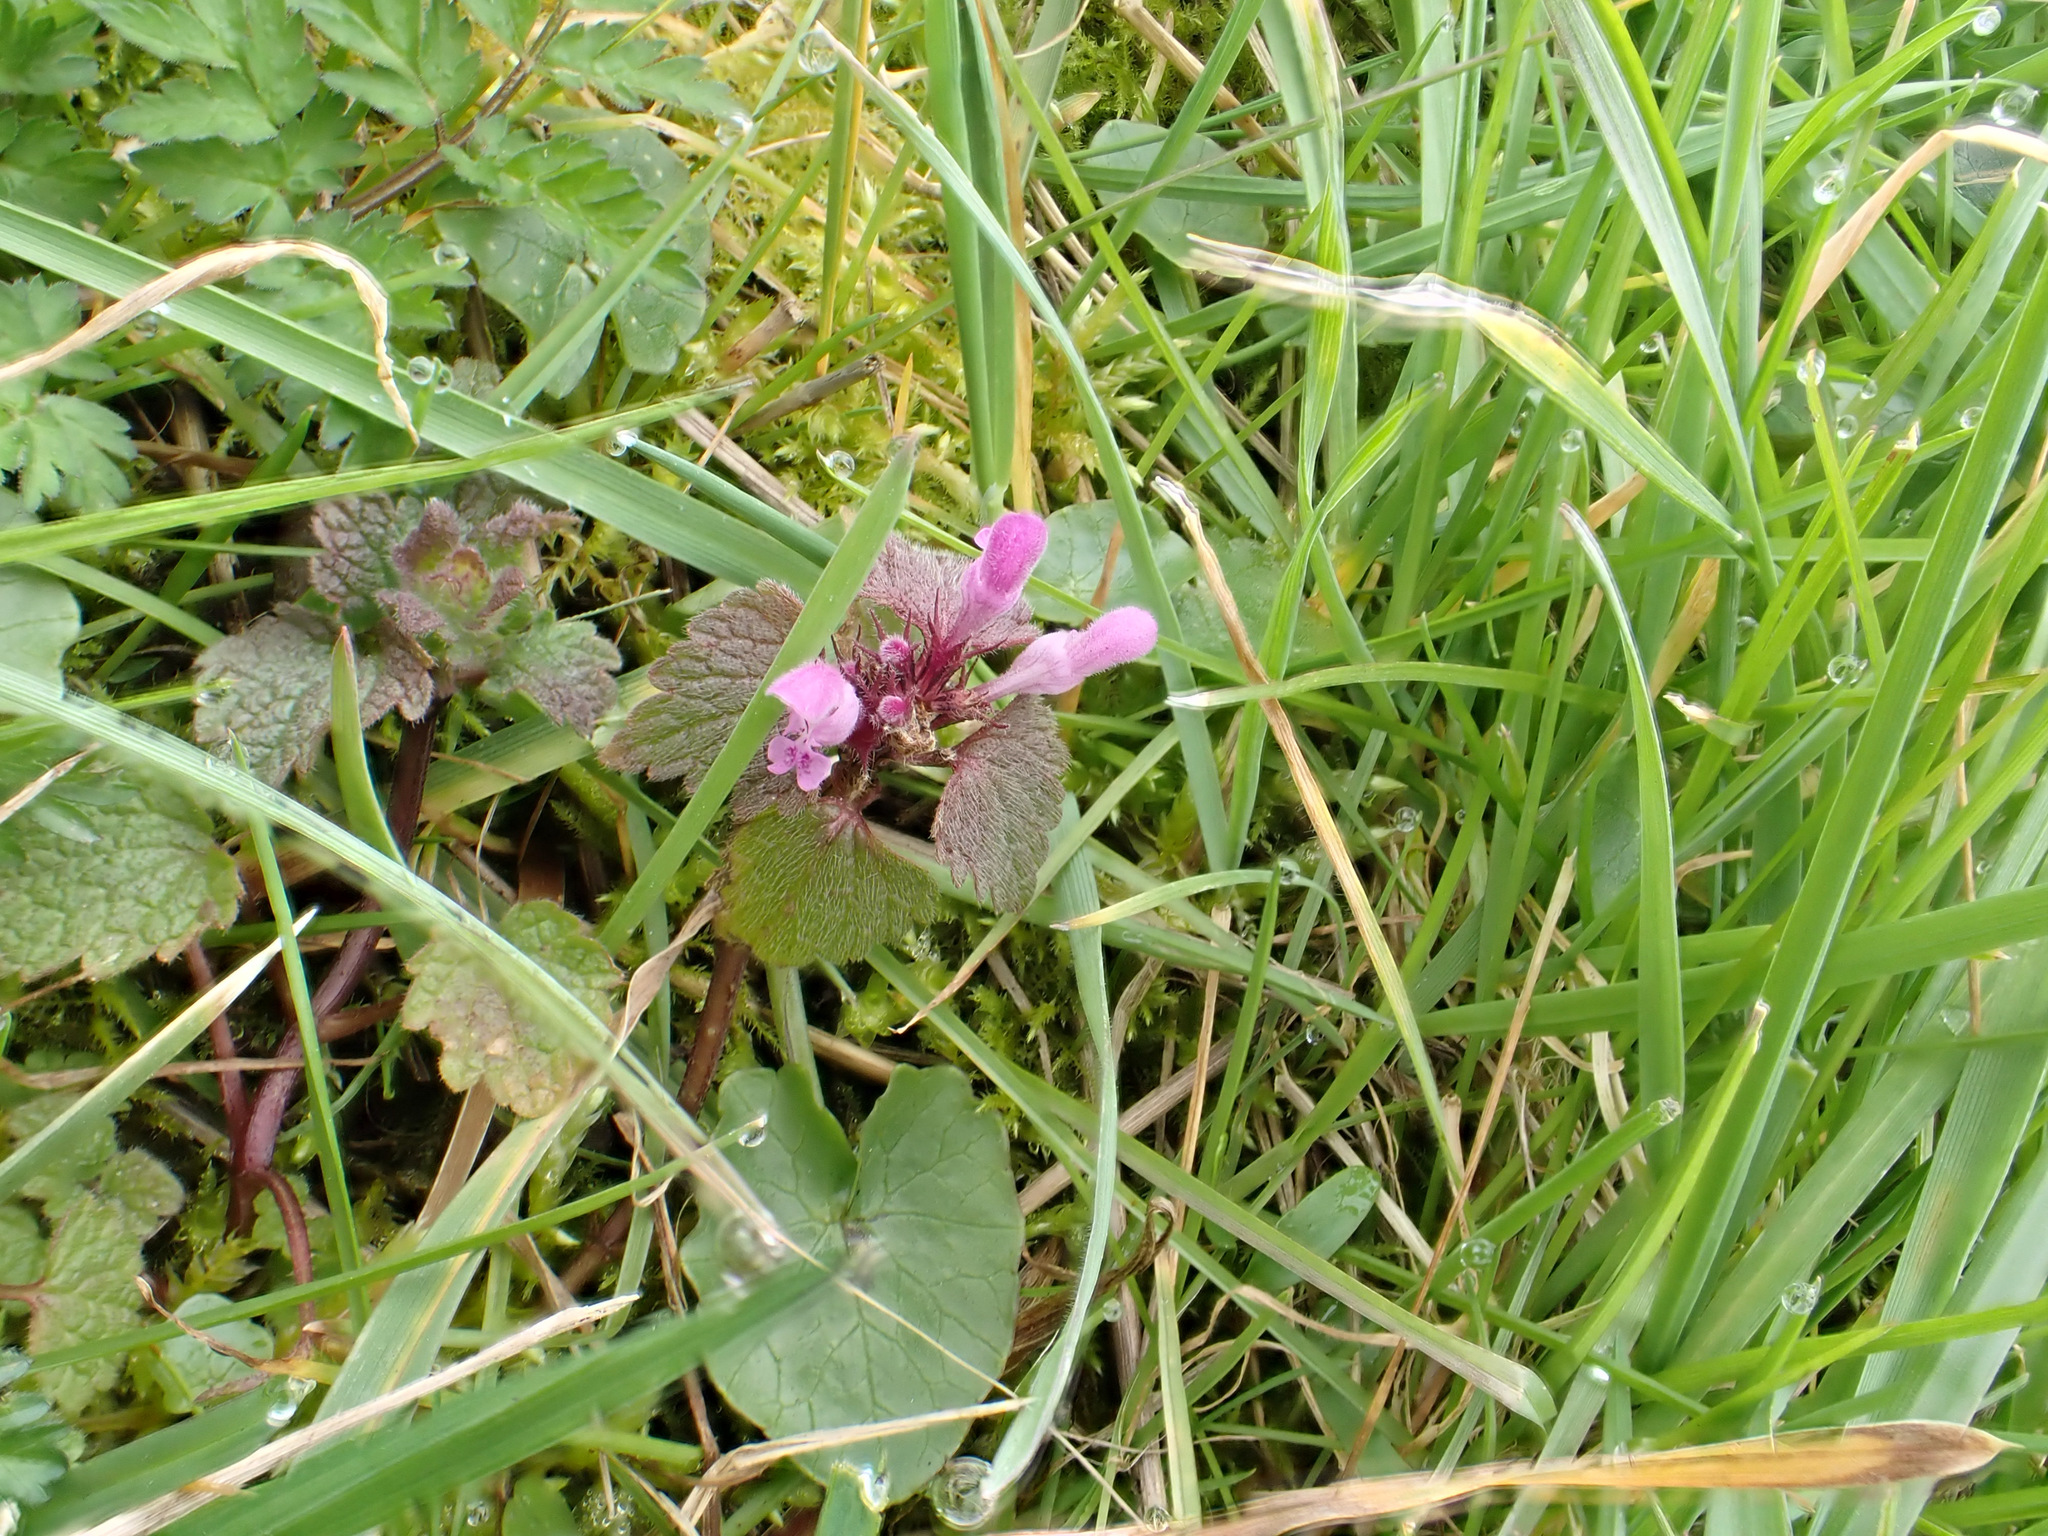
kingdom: Plantae
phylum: Tracheophyta
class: Magnoliopsida
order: Lamiales
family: Lamiaceae
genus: Lamium
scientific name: Lamium purpureum
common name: Red dead-nettle
